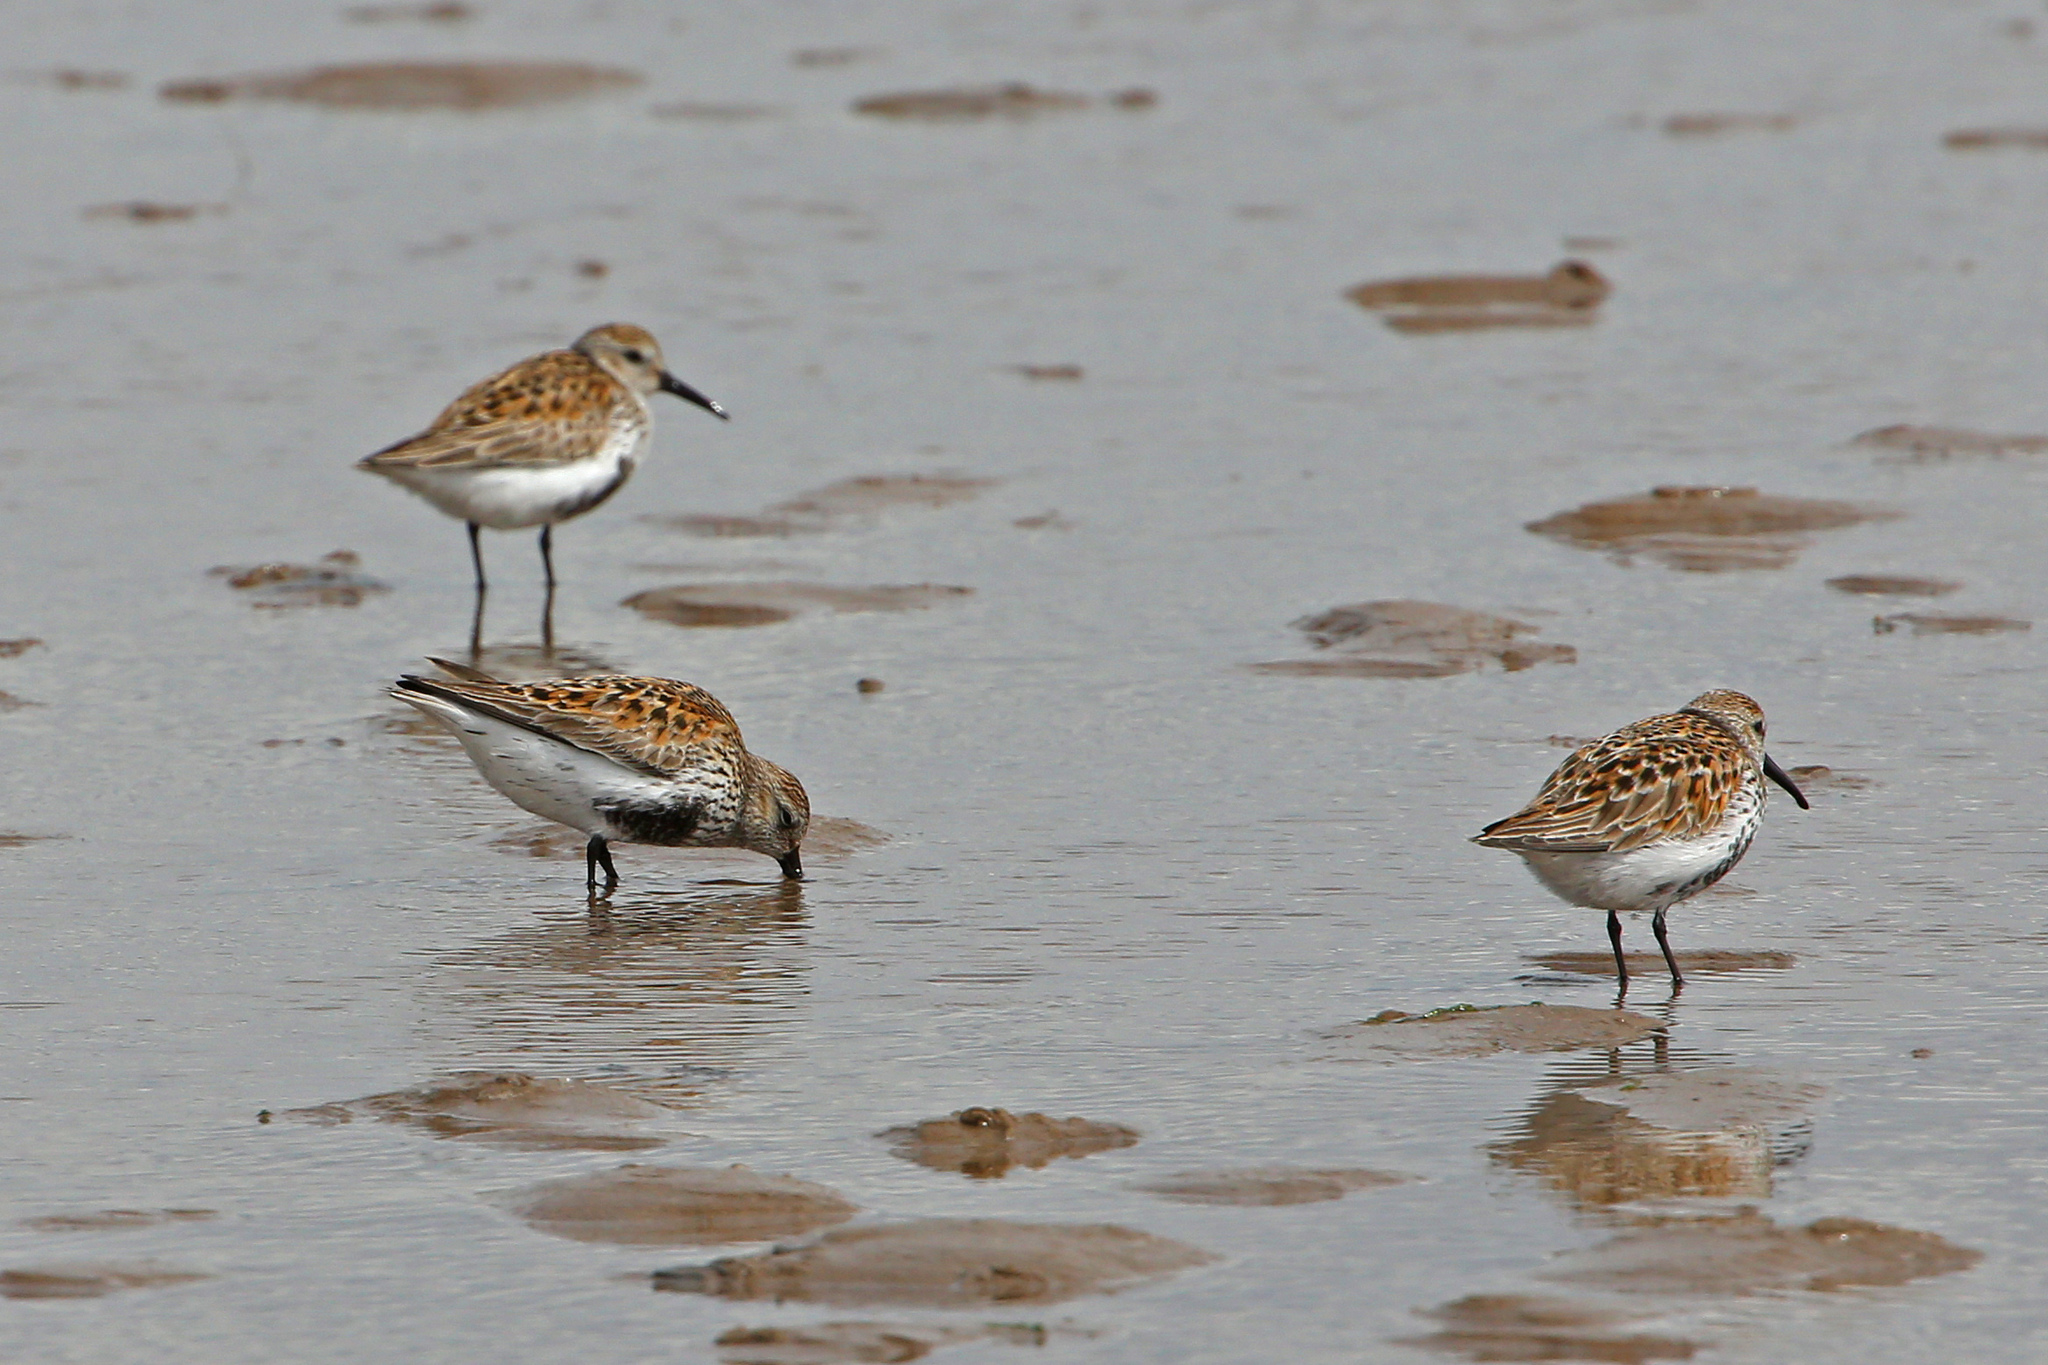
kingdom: Animalia
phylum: Chordata
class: Aves
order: Charadriiformes
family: Scolopacidae
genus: Calidris
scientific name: Calidris alpina
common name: Dunlin
